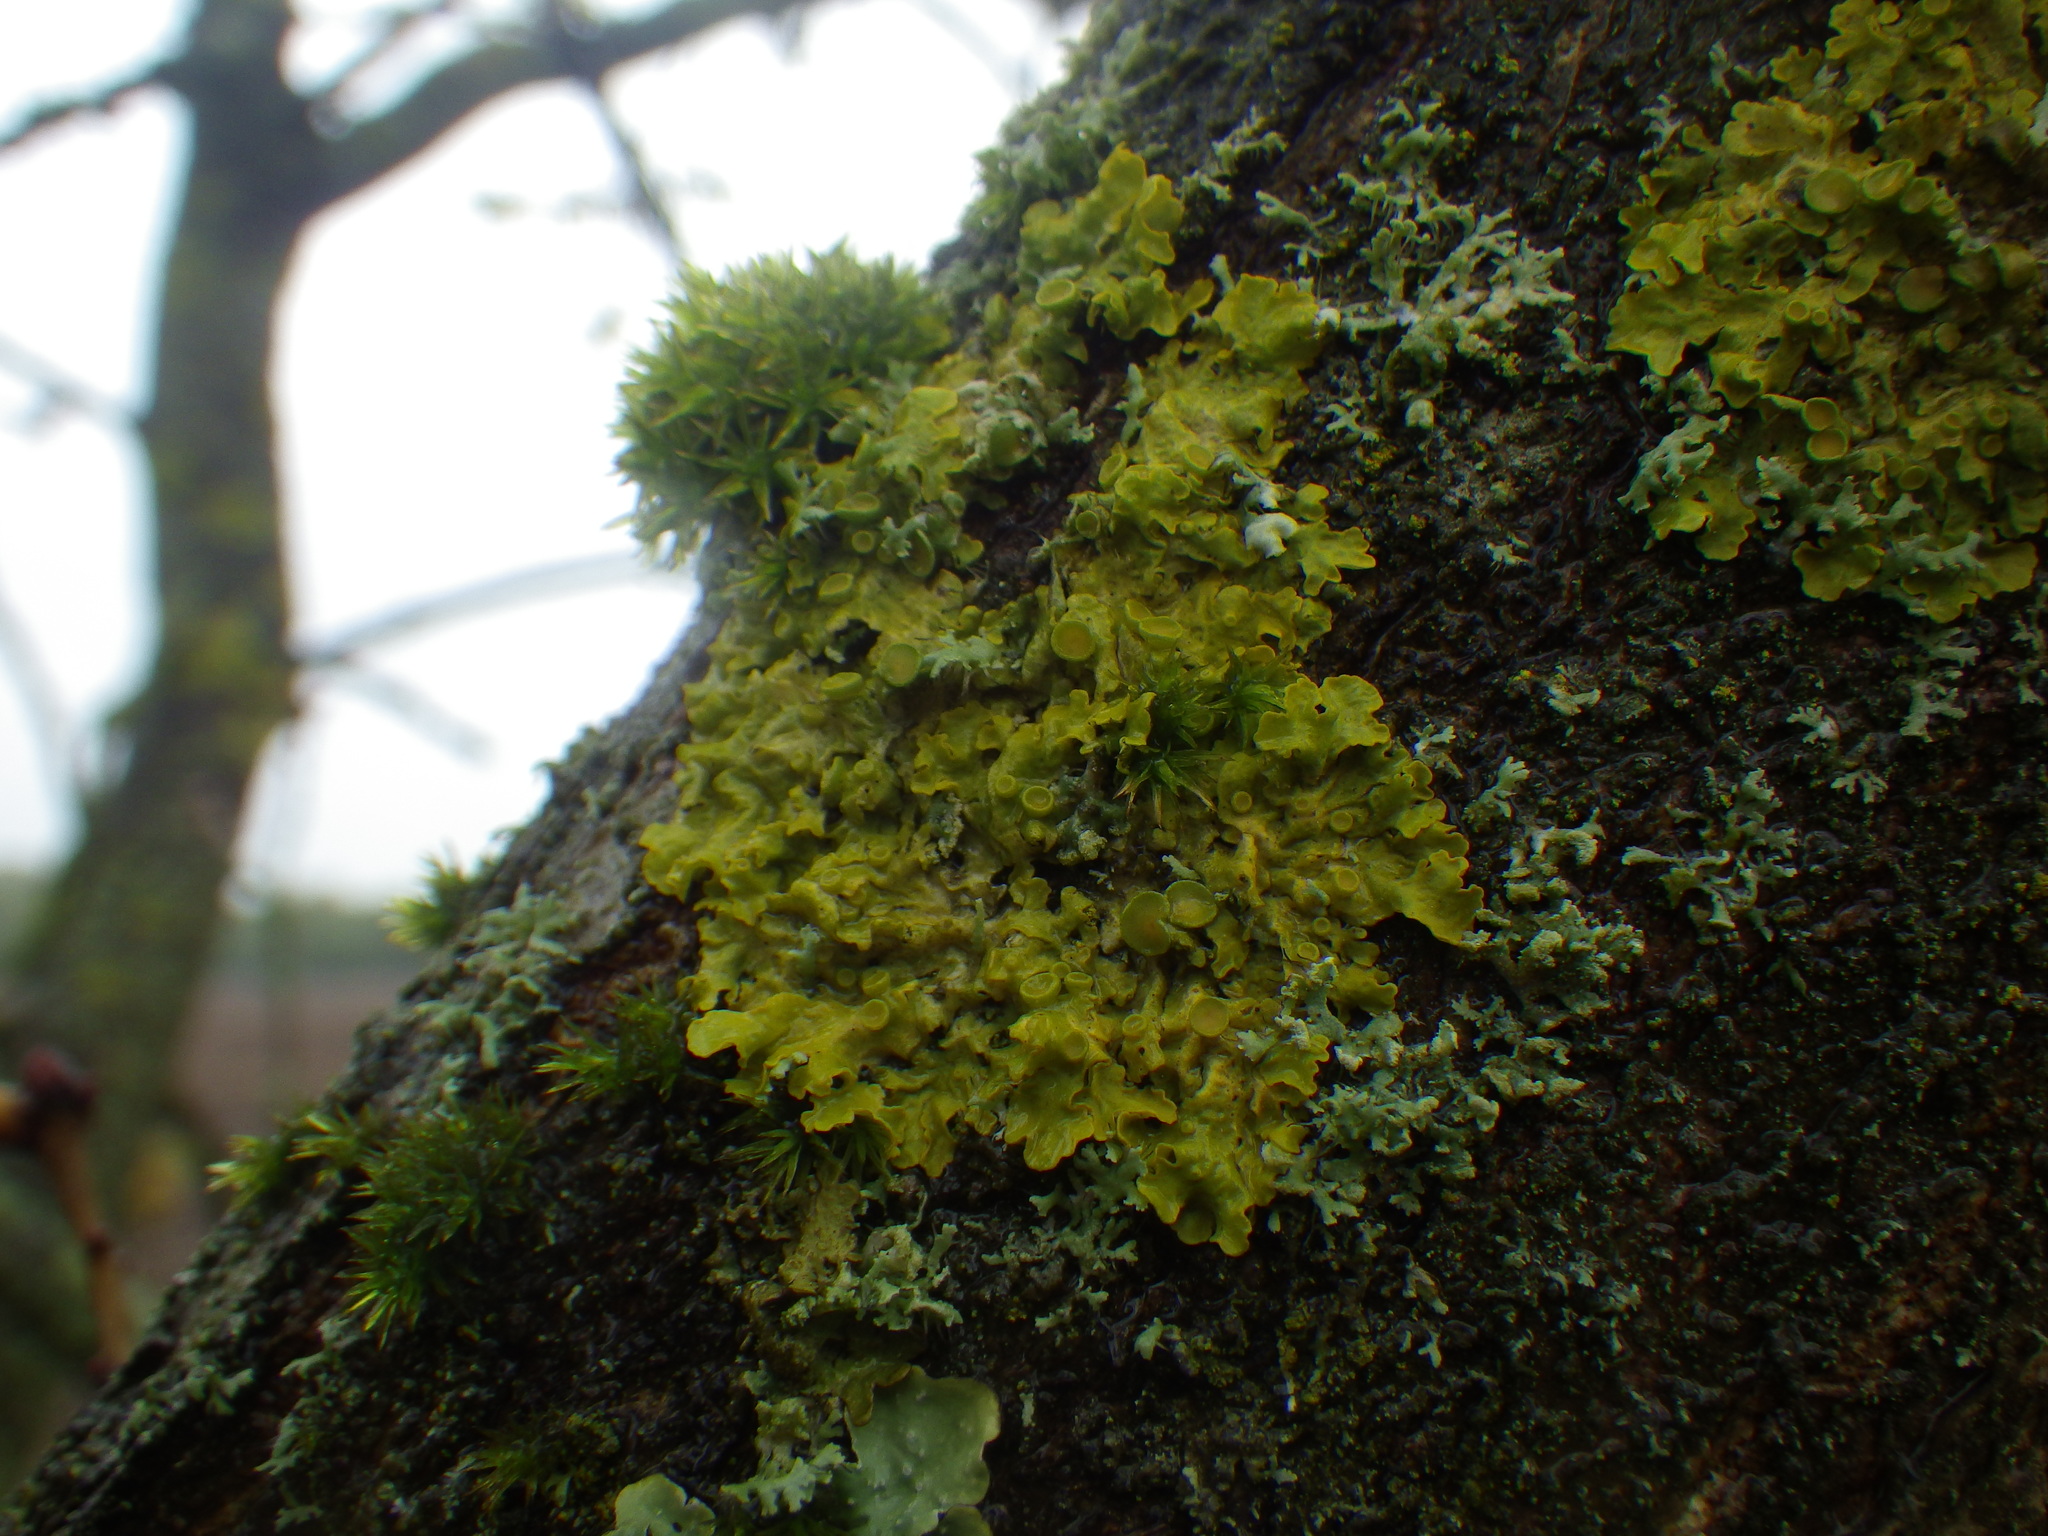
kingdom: Fungi
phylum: Ascomycota
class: Lecanoromycetes
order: Teloschistales
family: Teloschistaceae
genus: Xanthoria
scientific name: Xanthoria parietina
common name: Common orange lichen
